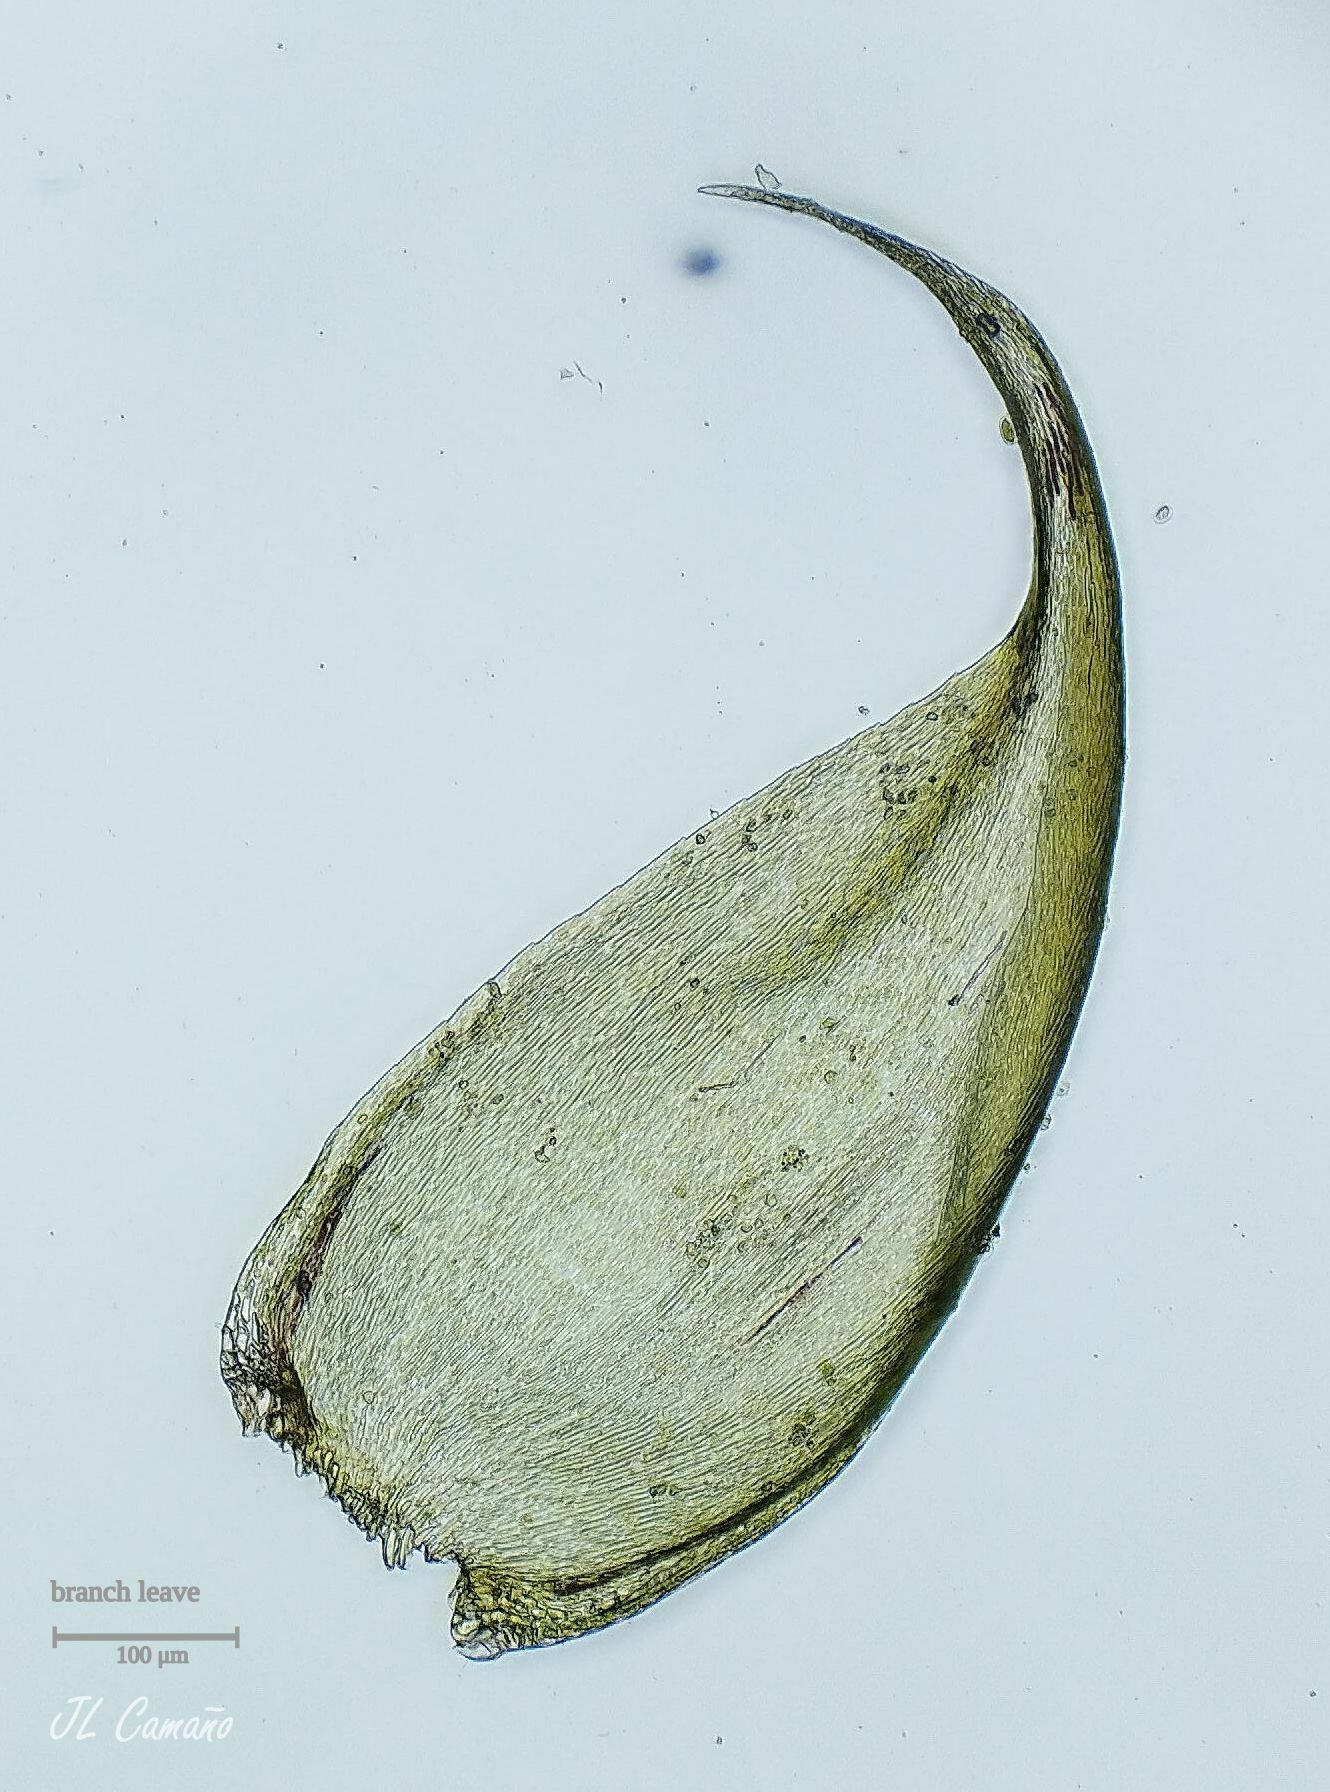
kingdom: Plantae
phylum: Bryophyta
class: Bryopsida
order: Hypnales
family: Hypnaceae
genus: Hypnum
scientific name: Hypnum jutlandicum
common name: Heath plait-moss
